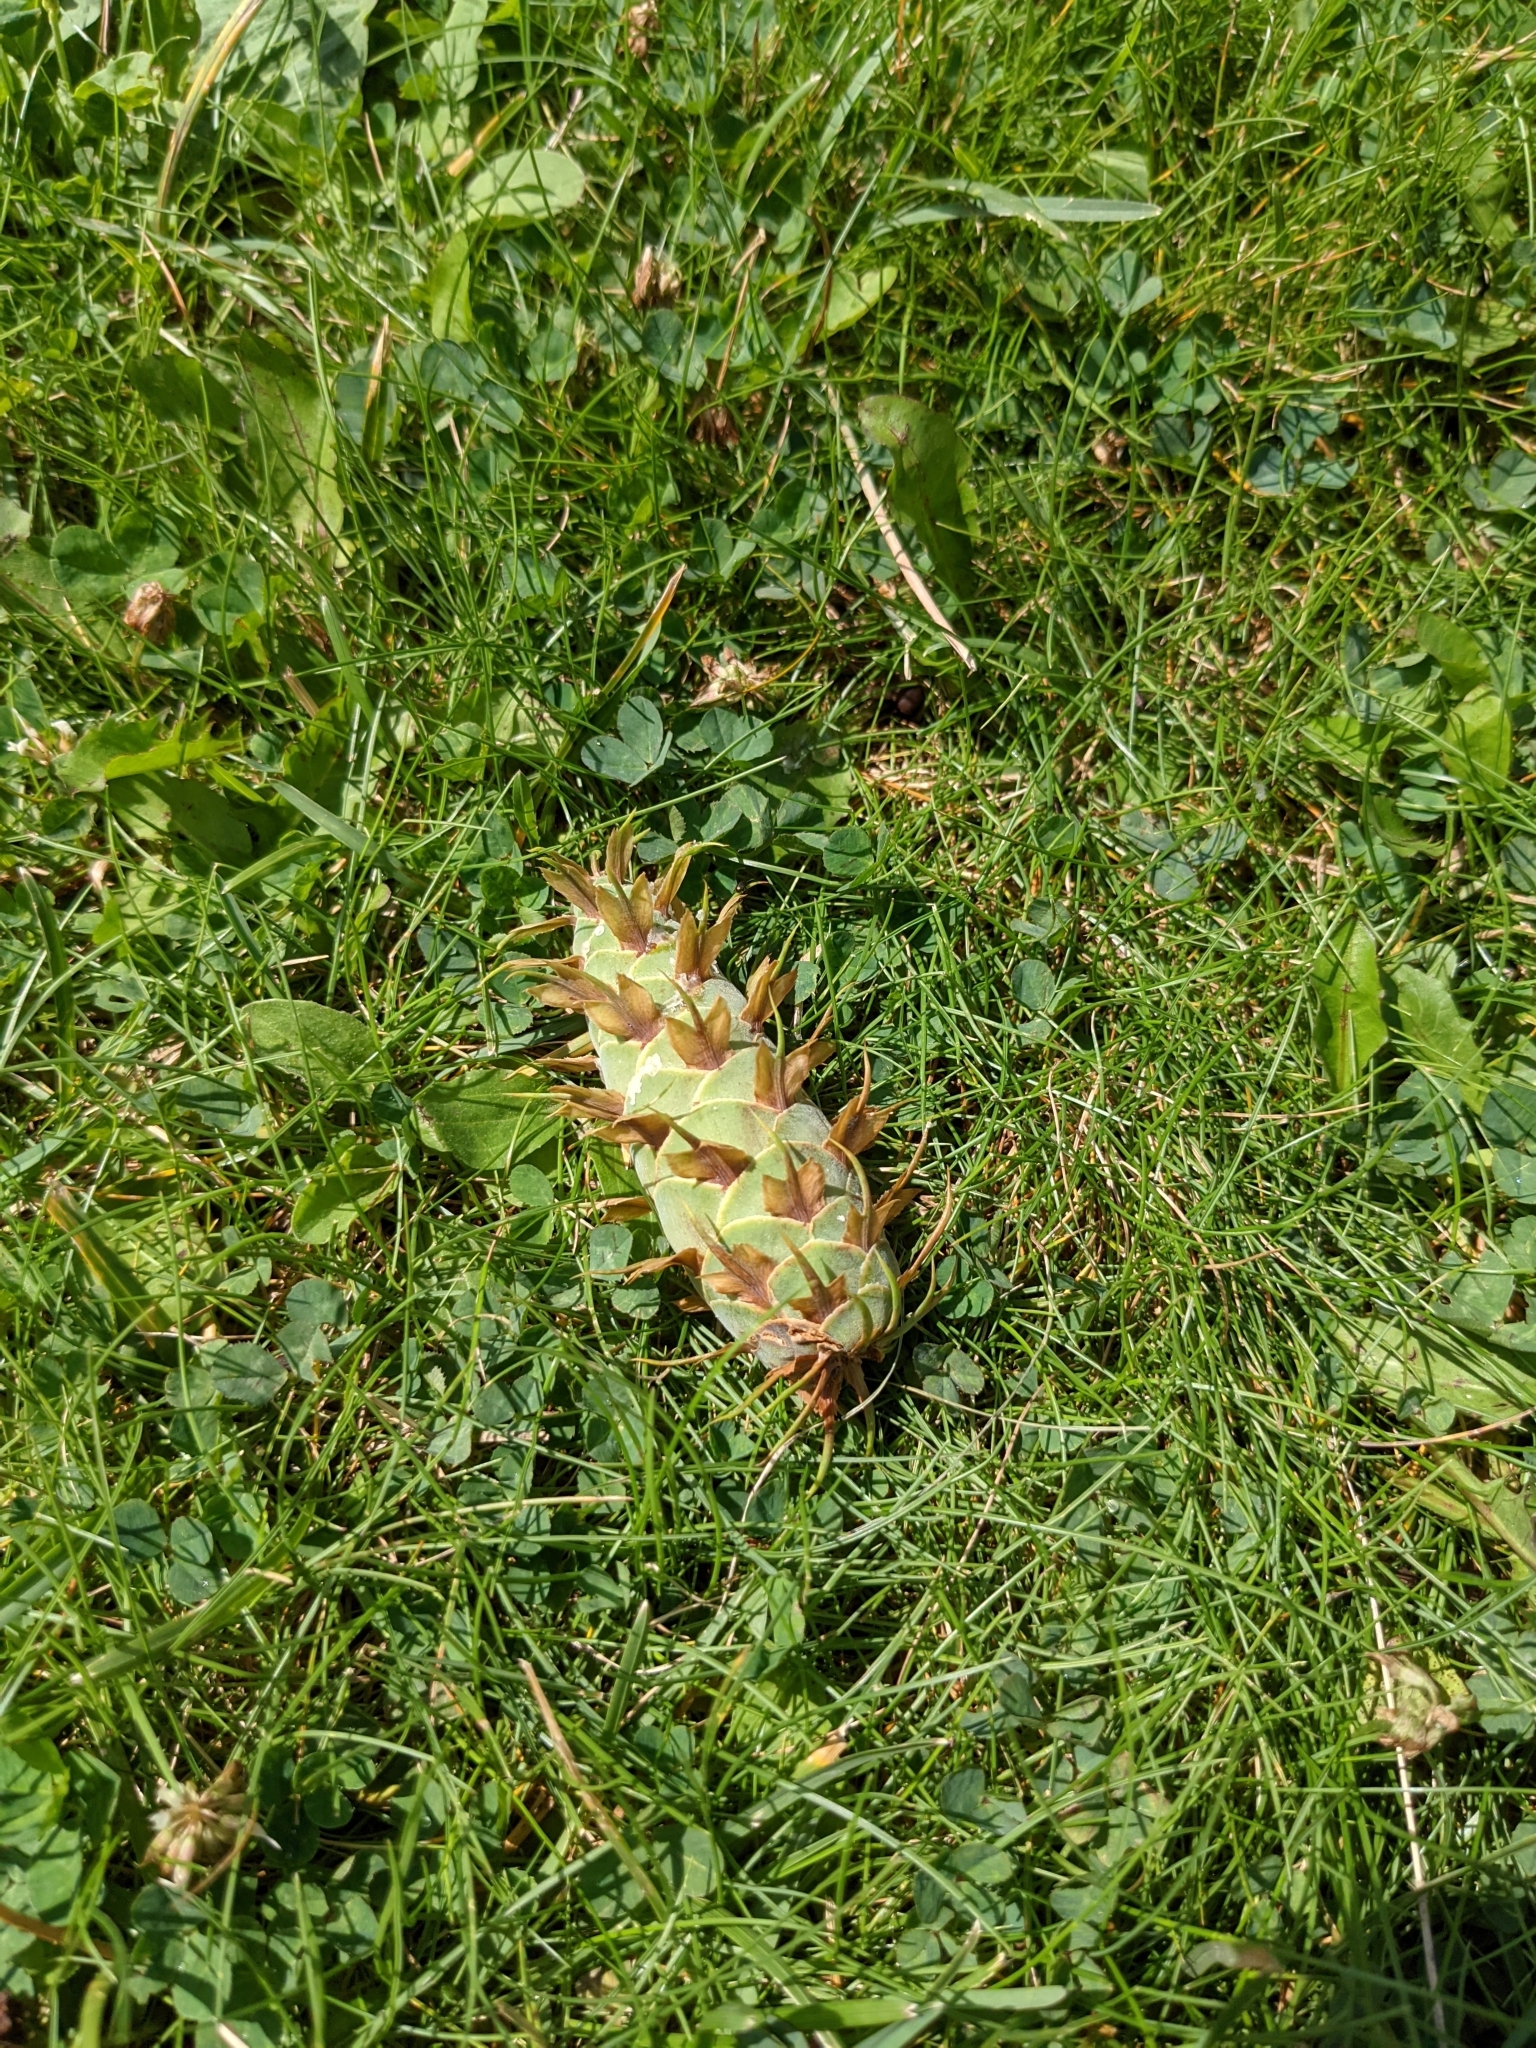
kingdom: Plantae
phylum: Tracheophyta
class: Pinopsida
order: Pinales
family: Pinaceae
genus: Pseudotsuga
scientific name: Pseudotsuga menziesii
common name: Douglas fir
